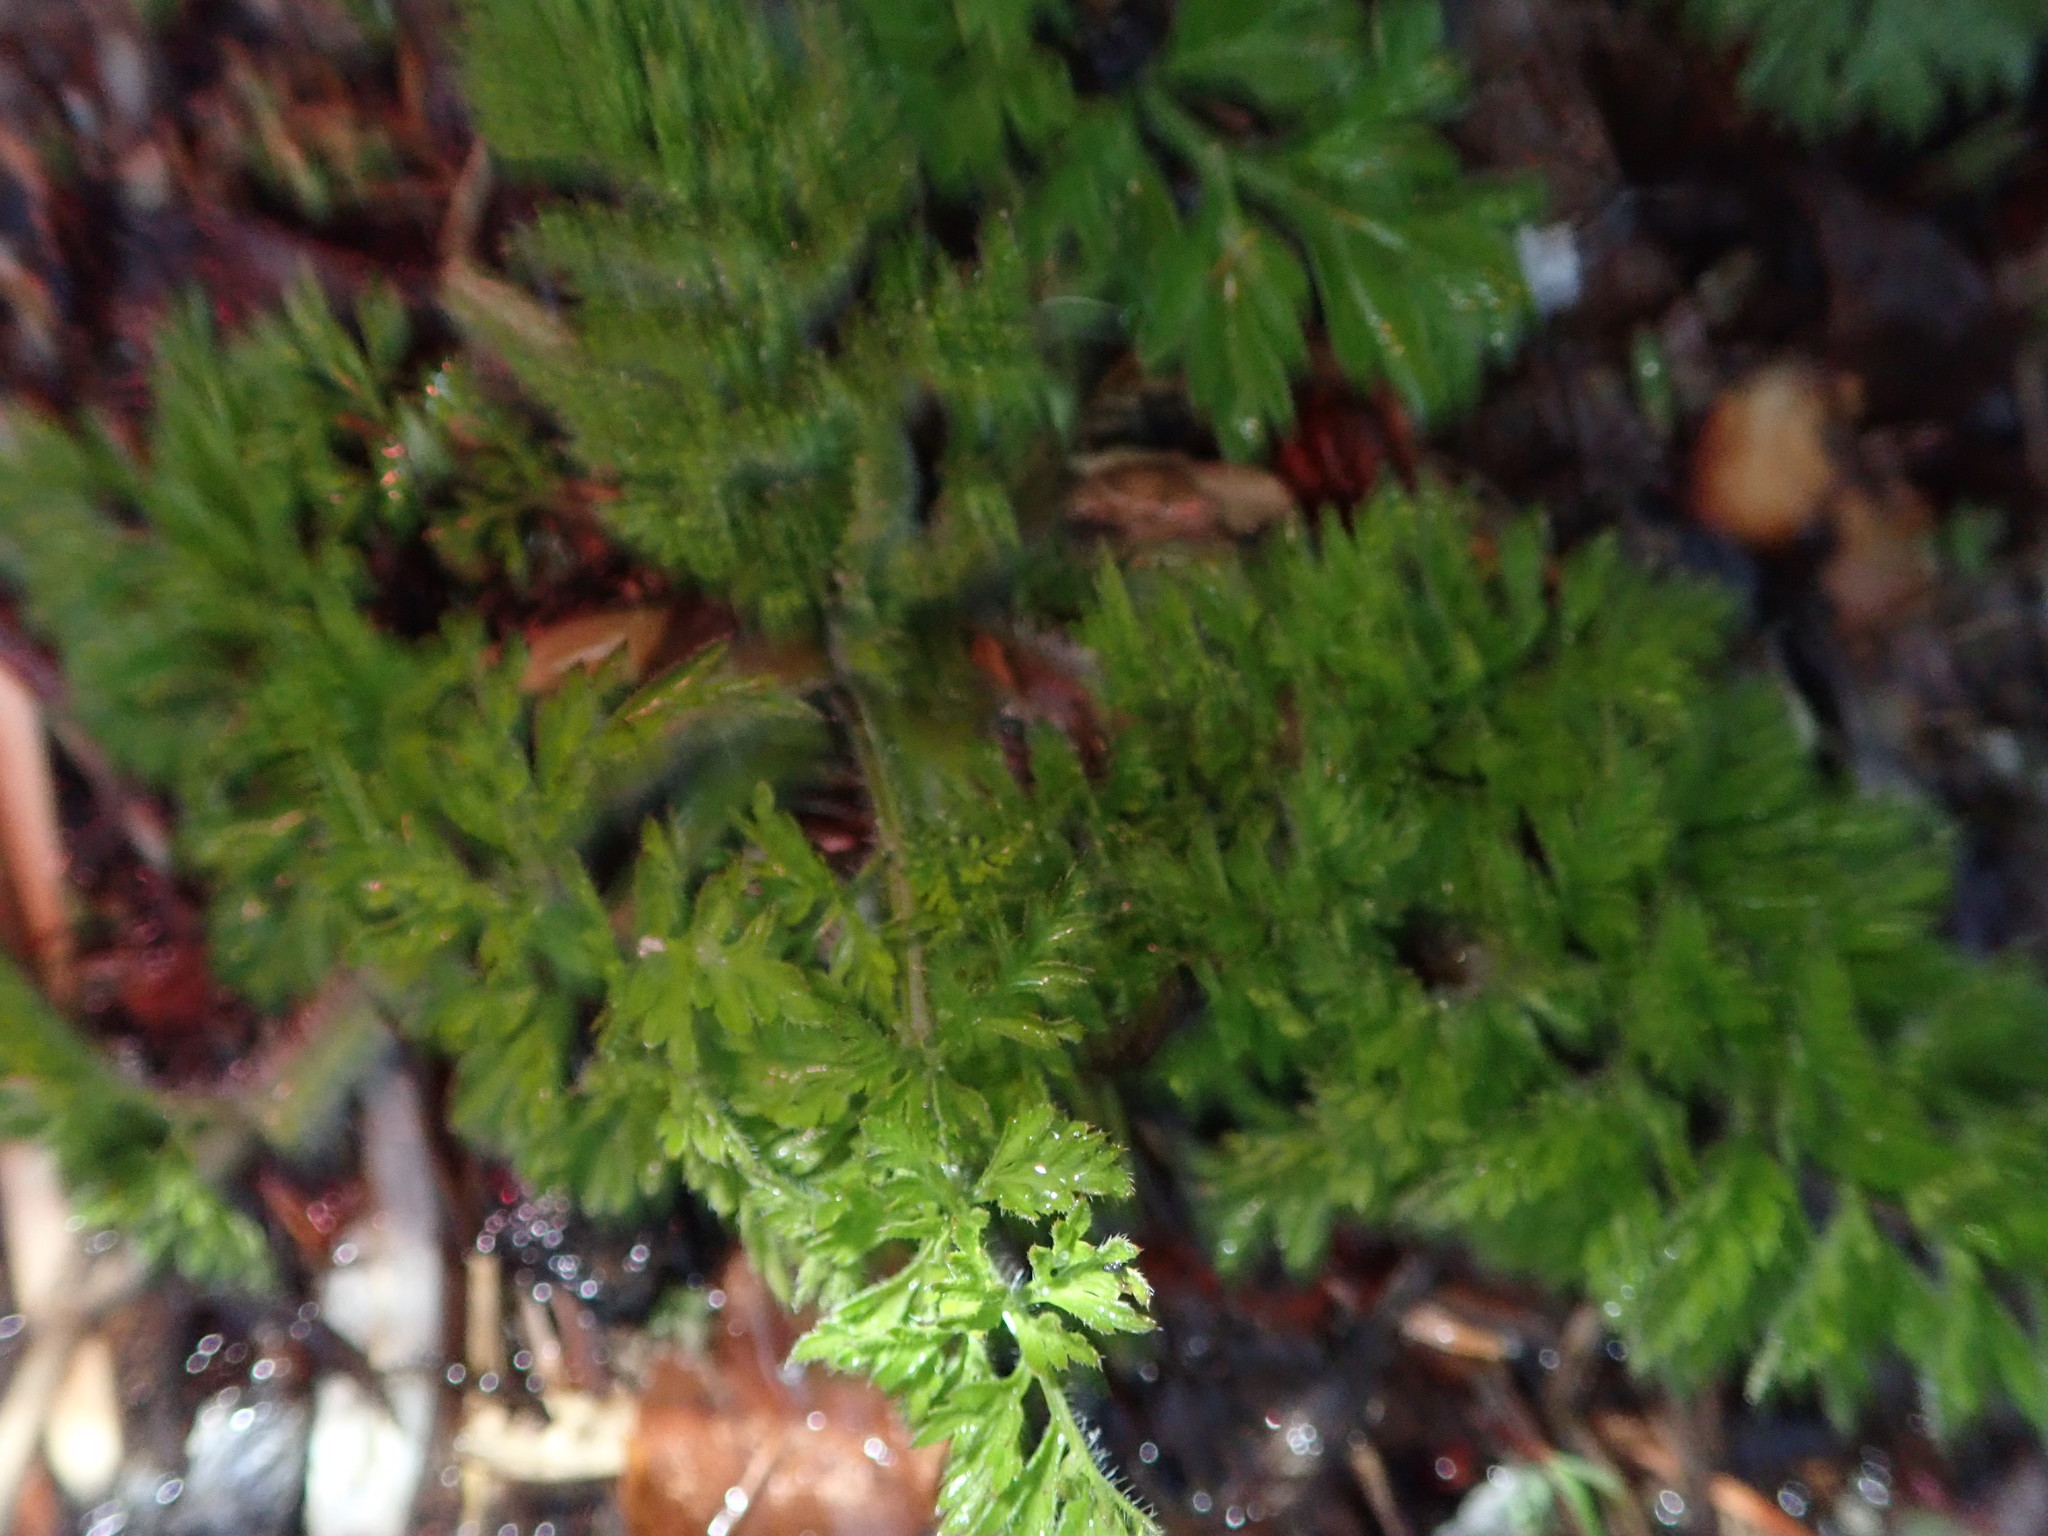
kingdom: Plantae
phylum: Tracheophyta
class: Magnoliopsida
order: Asterales
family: Asteraceae
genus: Artemisia
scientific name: Artemisia vulgaris
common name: Mugwort
